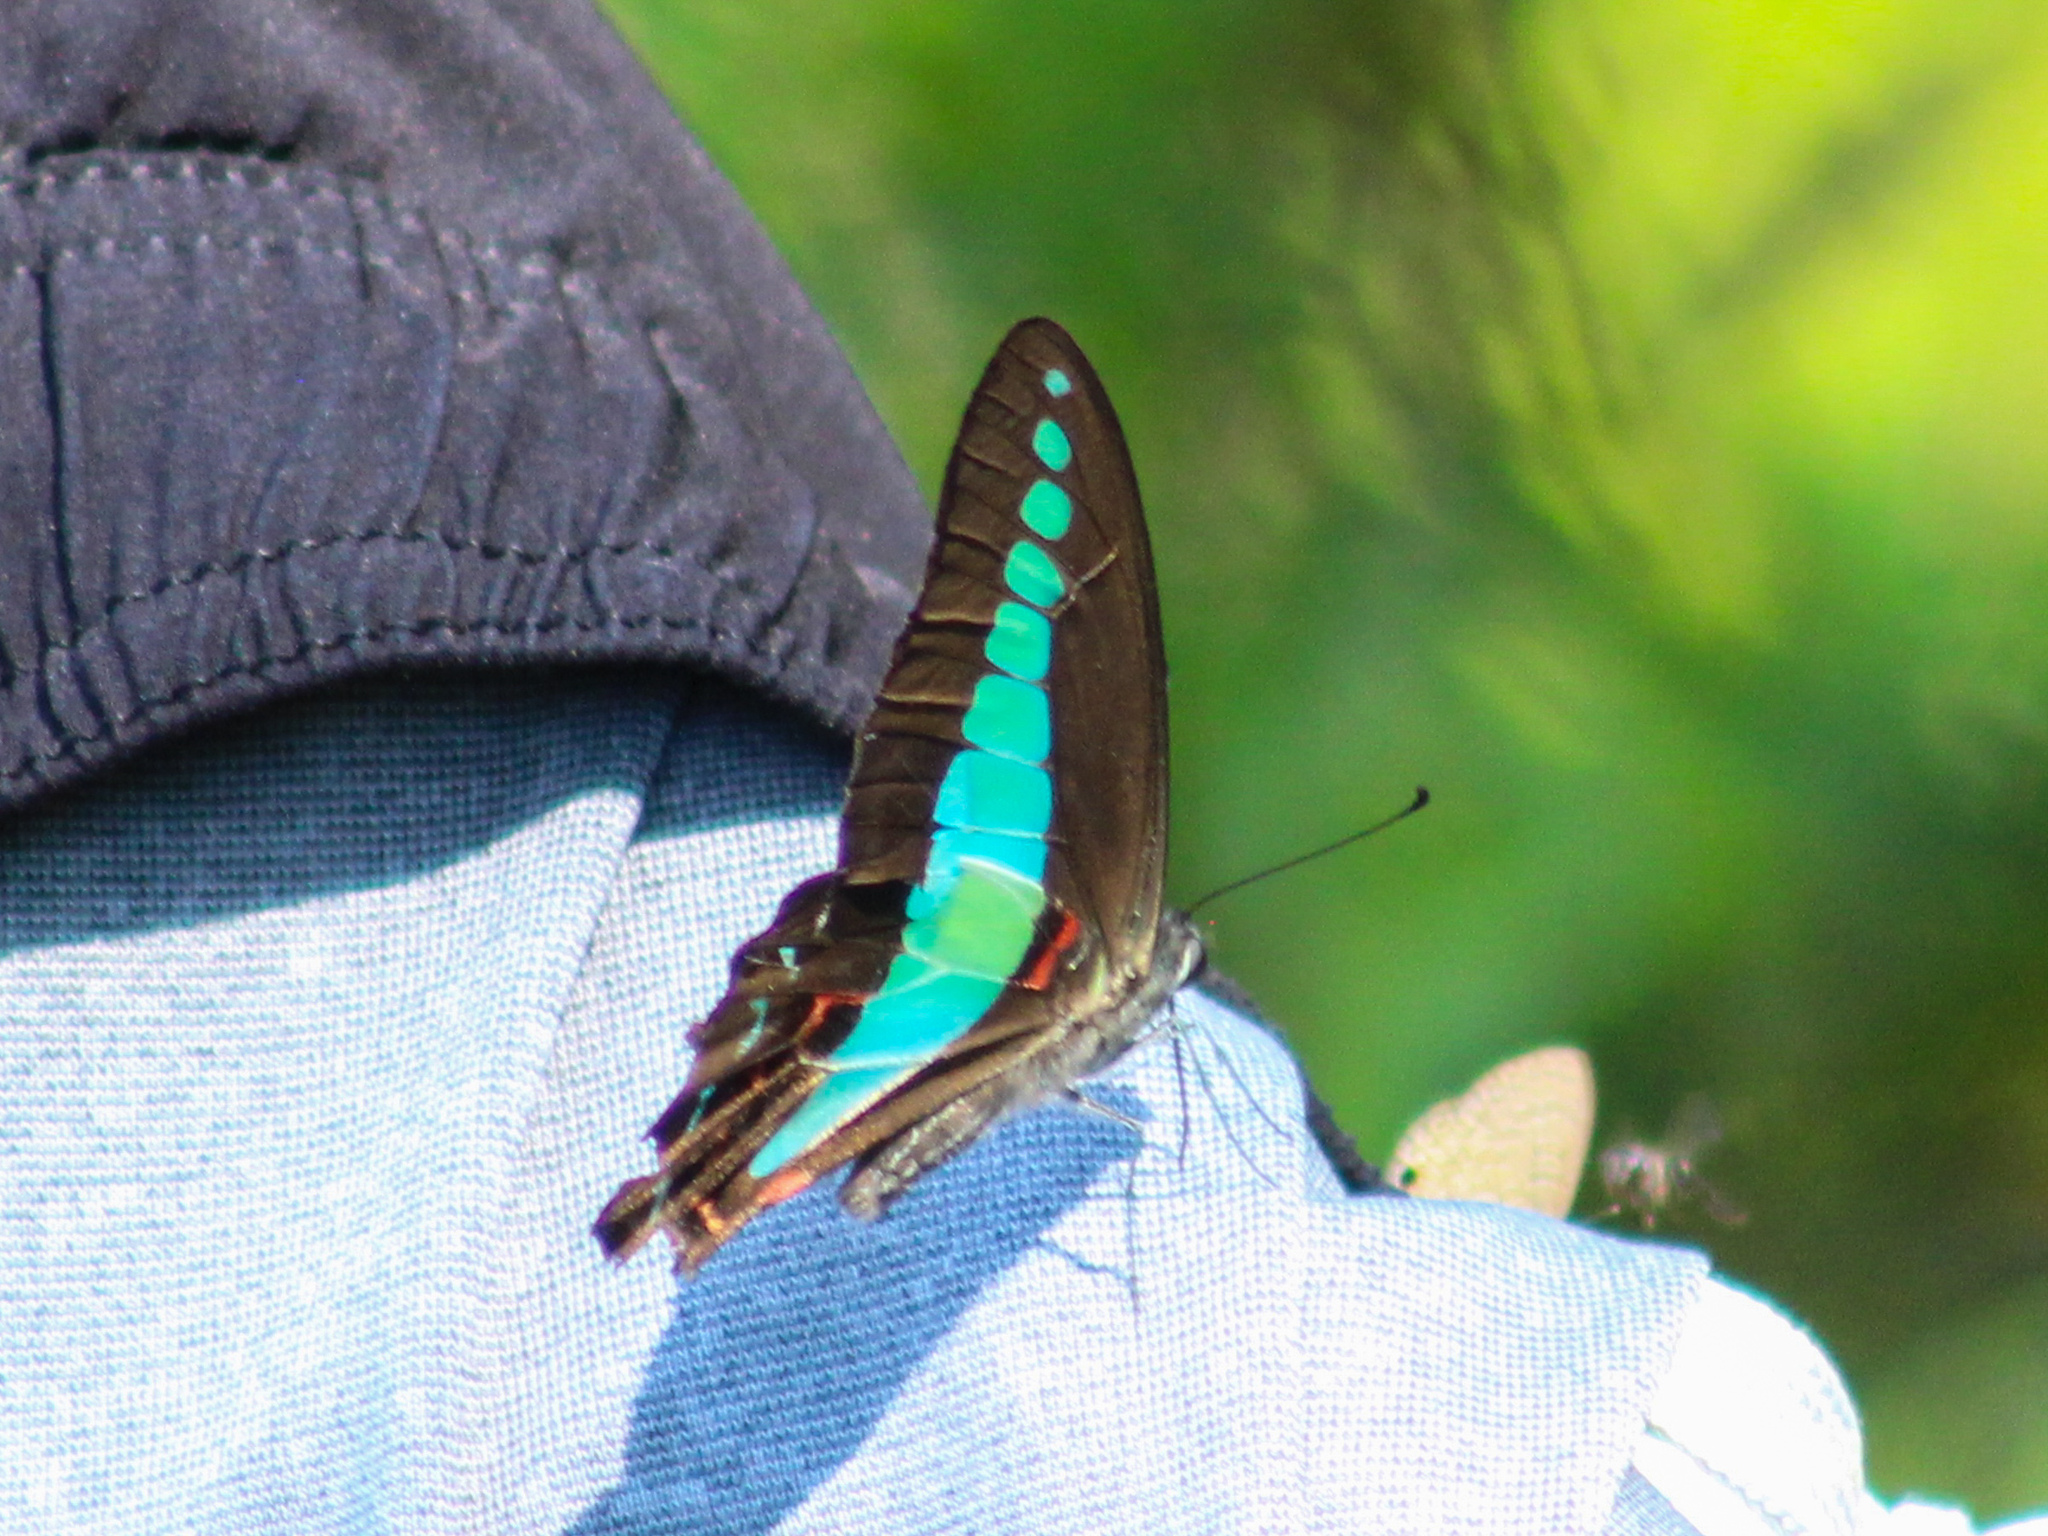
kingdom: Fungi
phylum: Ascomycota
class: Sordariomycetes
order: Microascales
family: Microascaceae
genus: Graphium
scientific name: Graphium sarpedon
